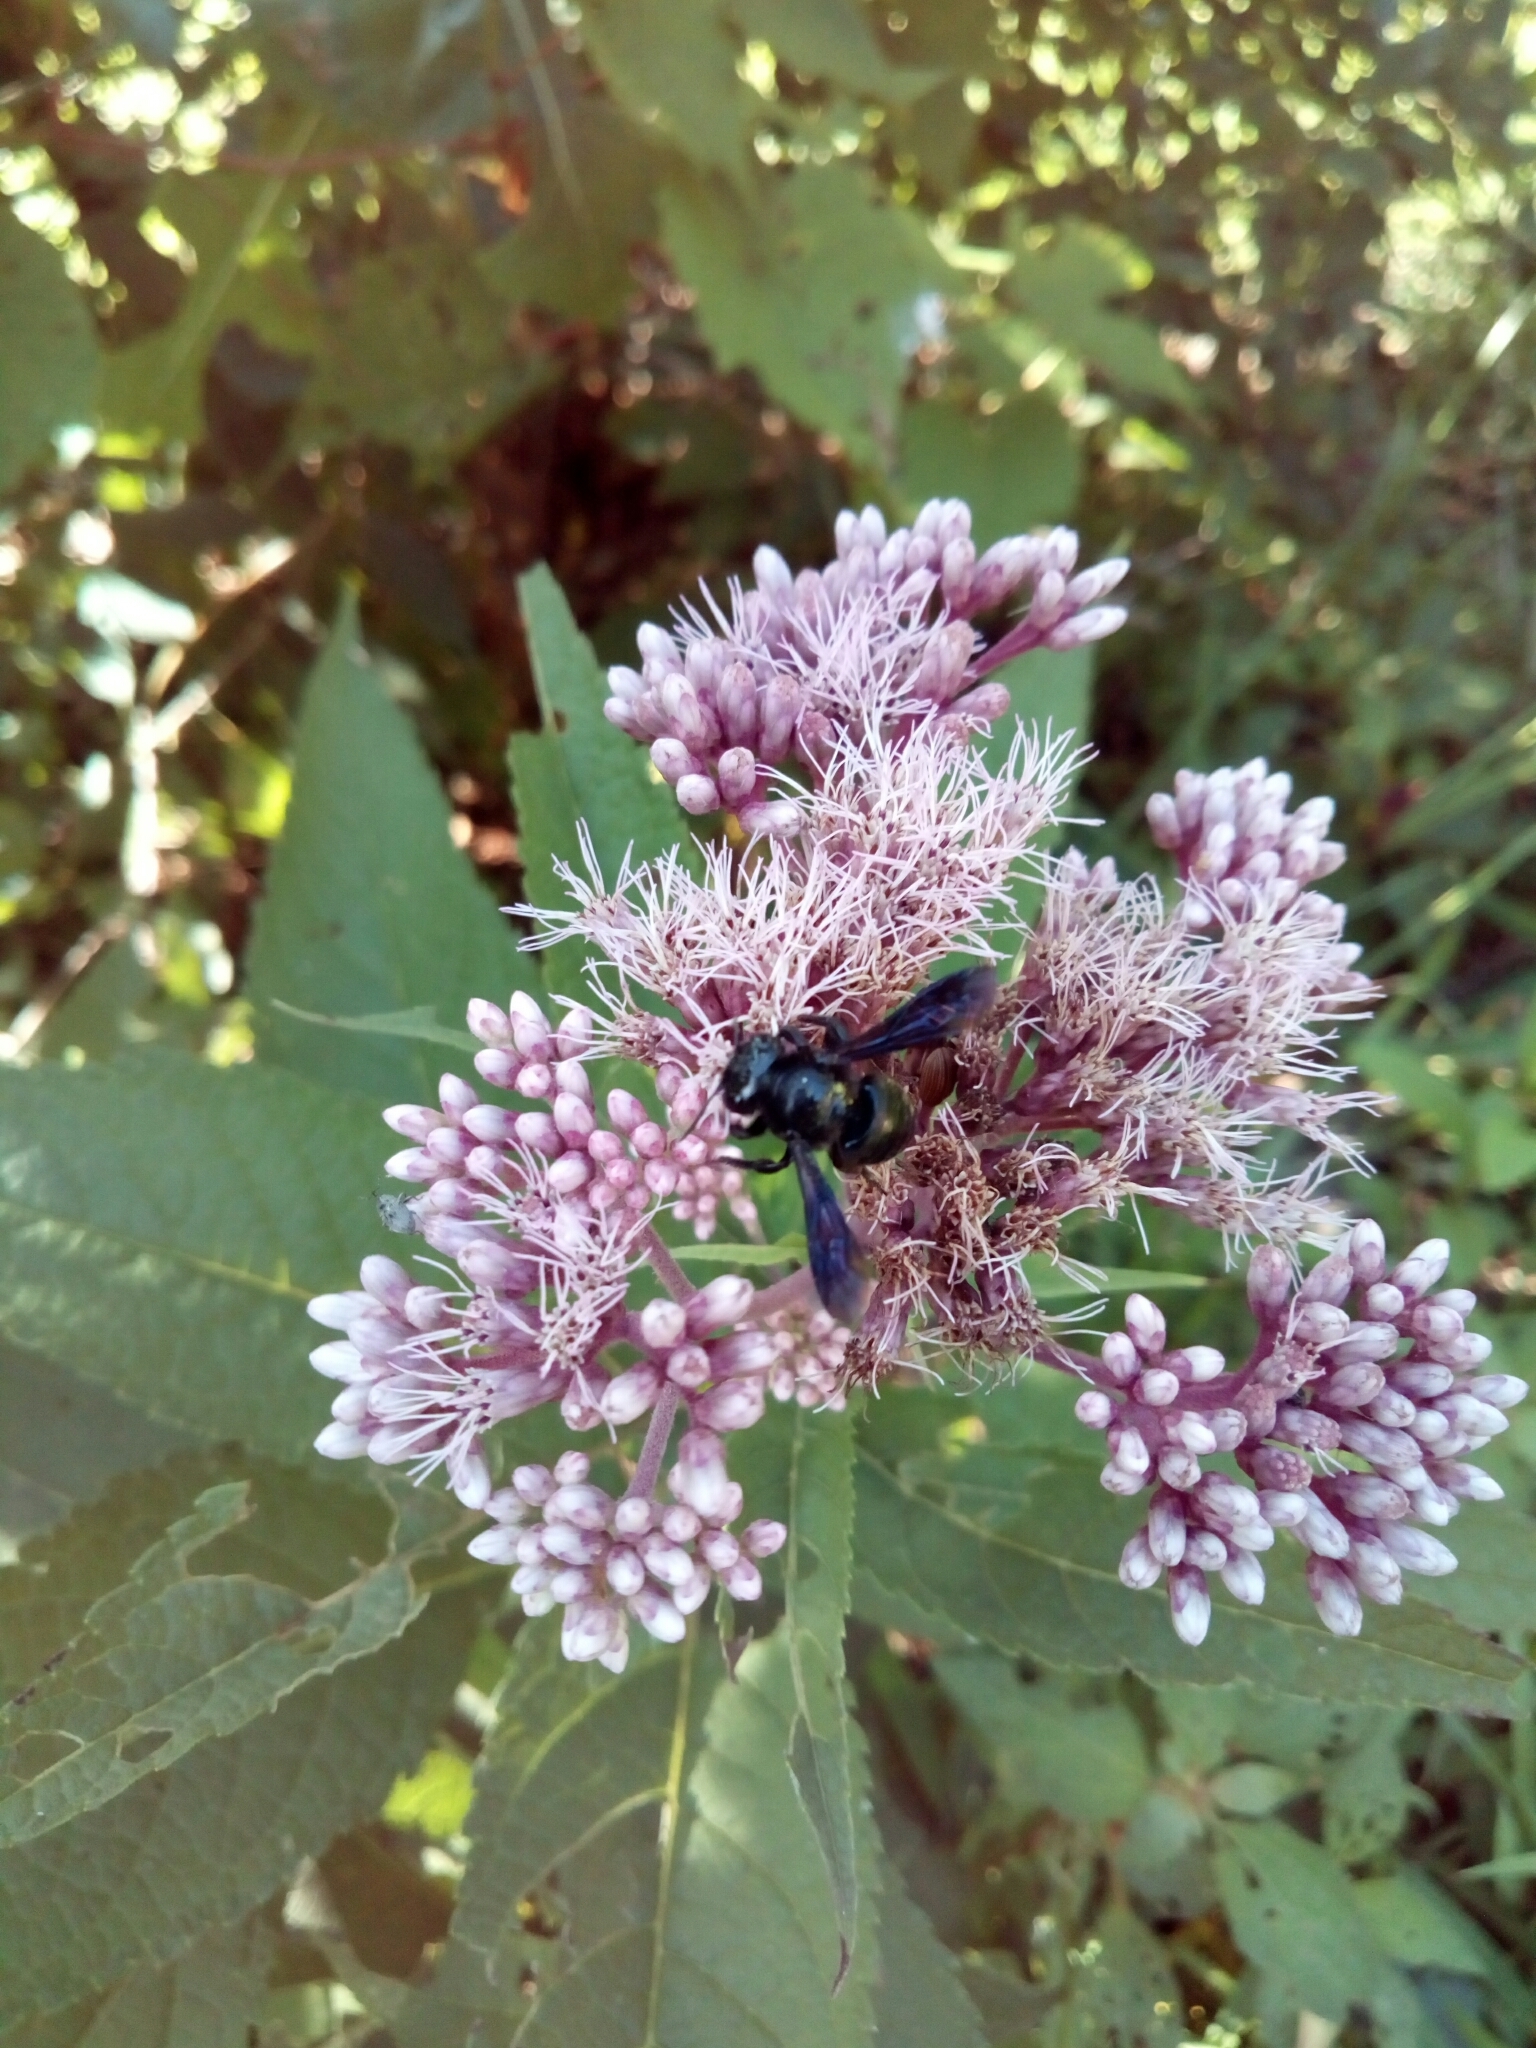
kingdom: Animalia
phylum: Arthropoda
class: Insecta
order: Hymenoptera
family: Megachilidae
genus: Megachile
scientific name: Megachile xylocopoides
